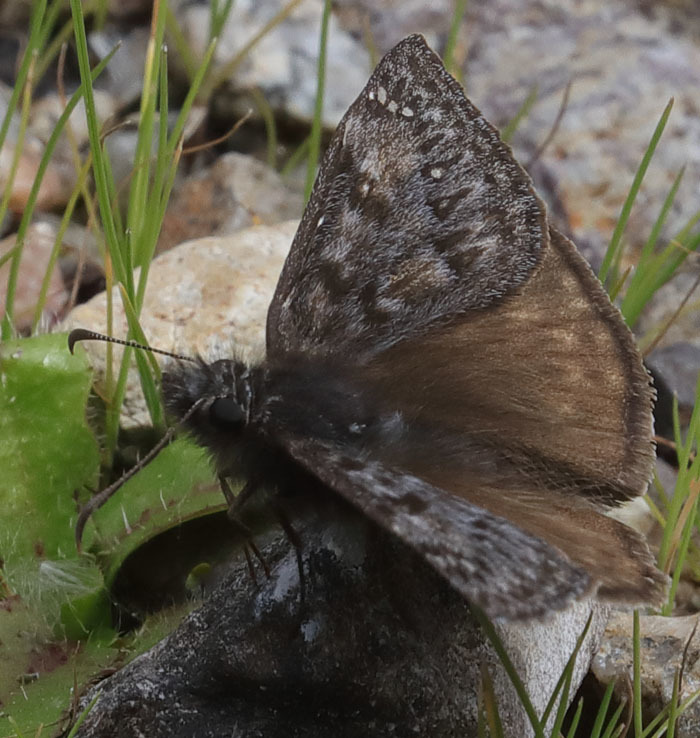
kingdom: Animalia
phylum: Arthropoda
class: Insecta
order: Lepidoptera
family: Hesperiidae
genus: Erynnis
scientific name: Erynnis propertius
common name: Propertius duskywing
